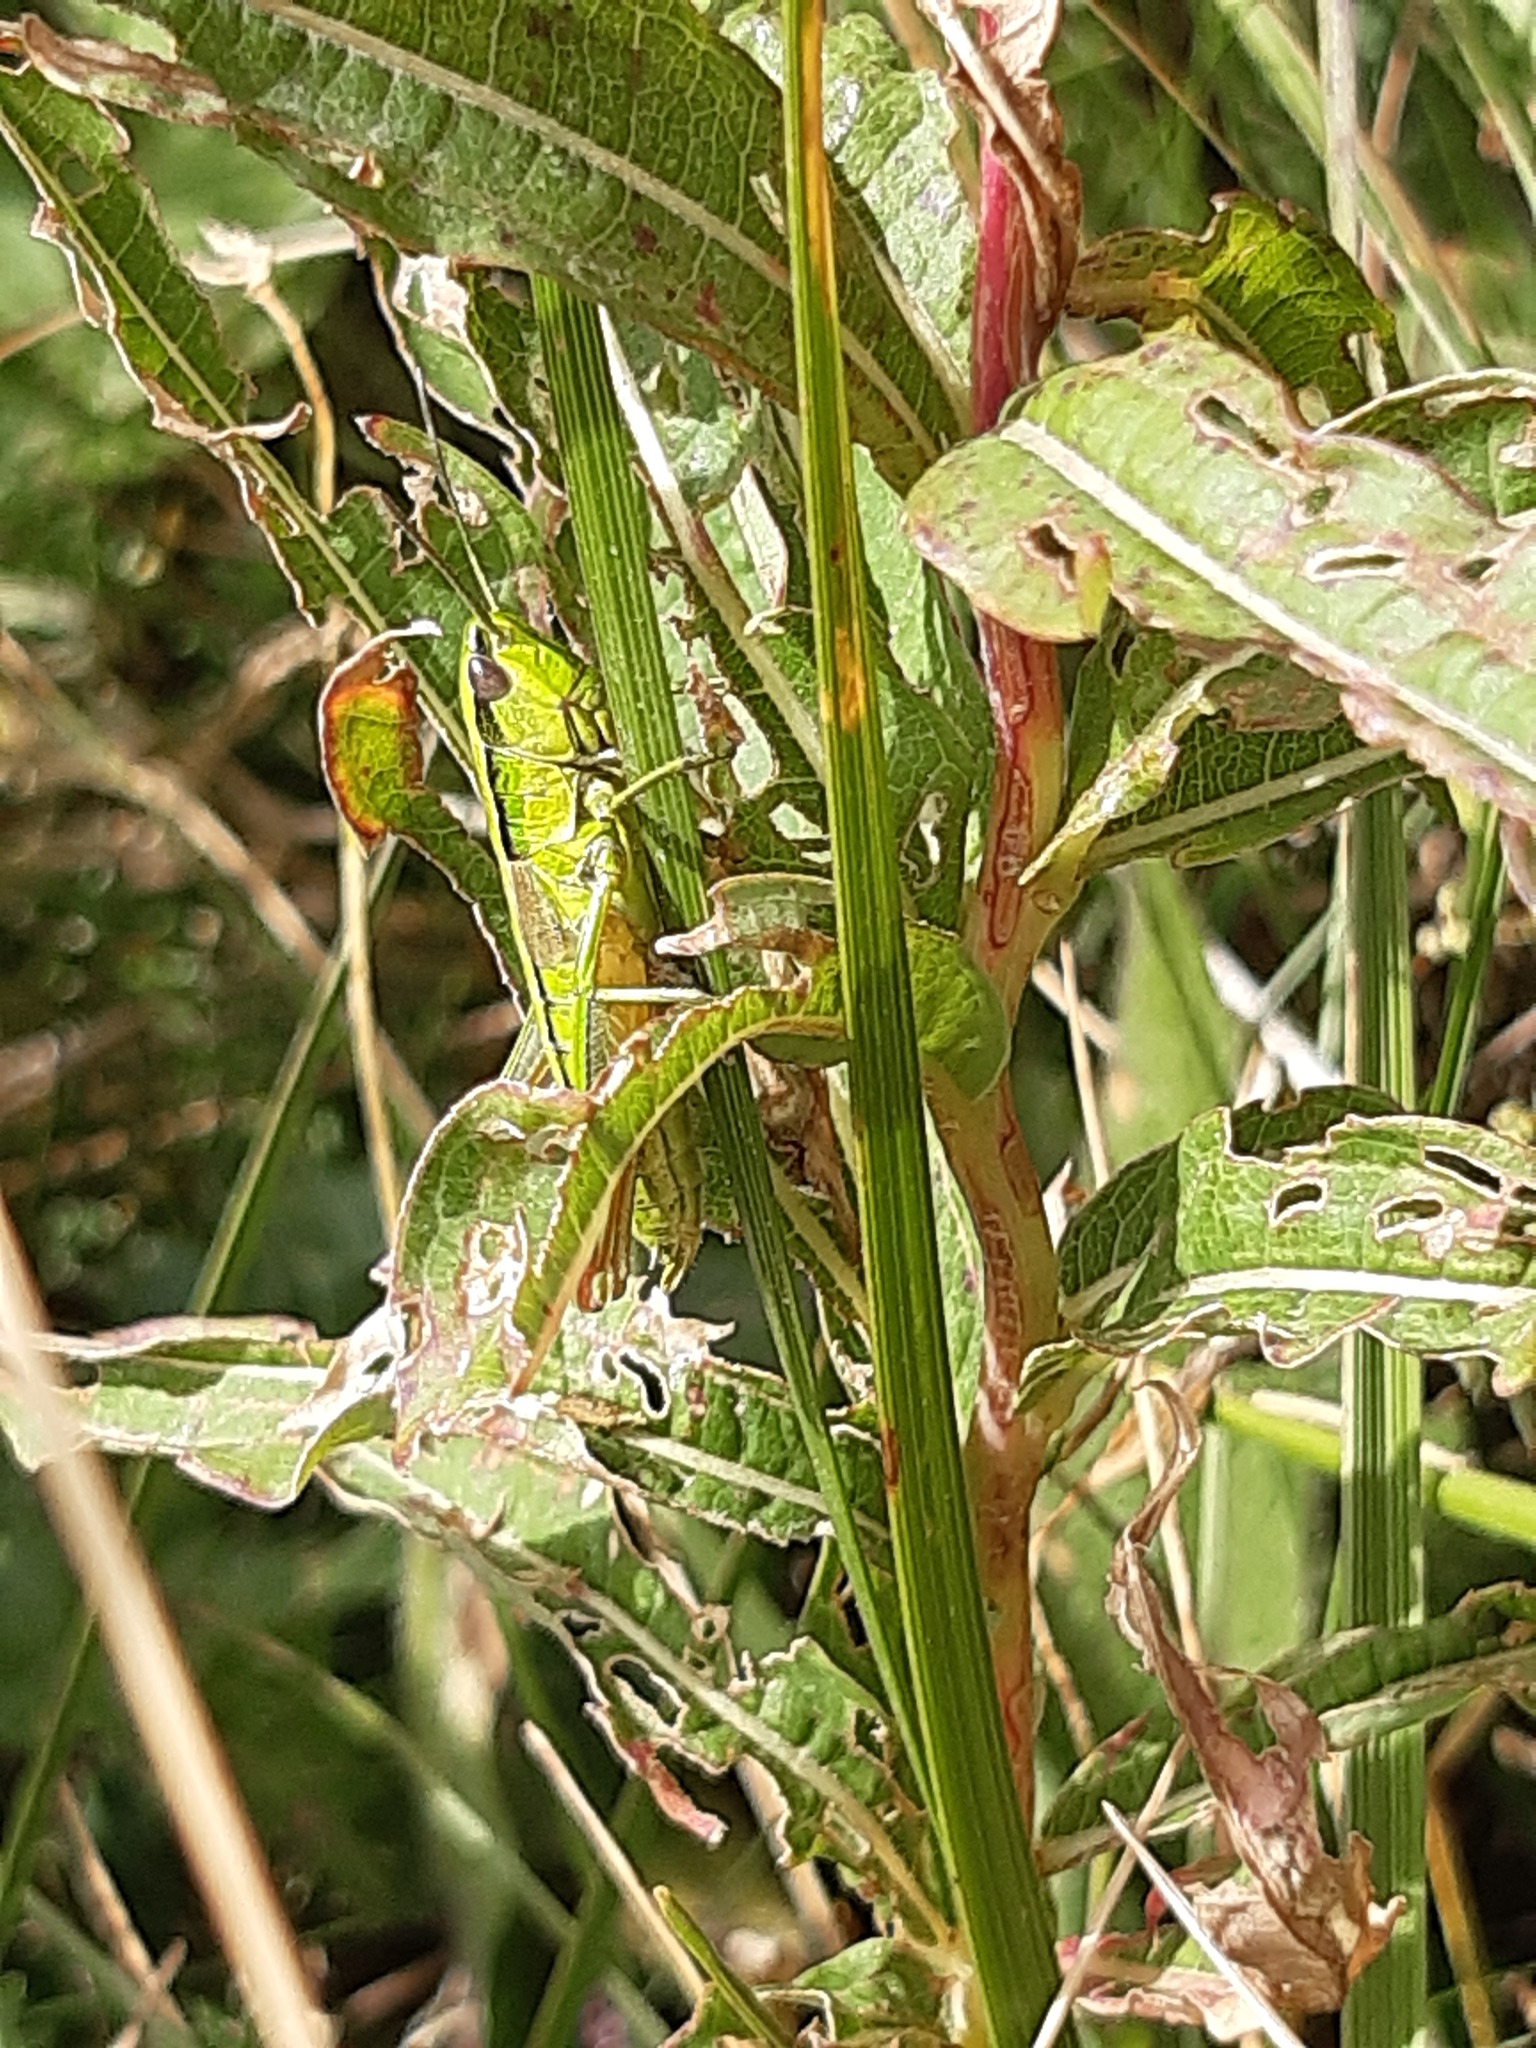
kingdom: Animalia
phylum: Arthropoda
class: Insecta
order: Orthoptera
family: Acrididae
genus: Euthystira
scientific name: Euthystira brachyptera
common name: Small gold grasshopper
